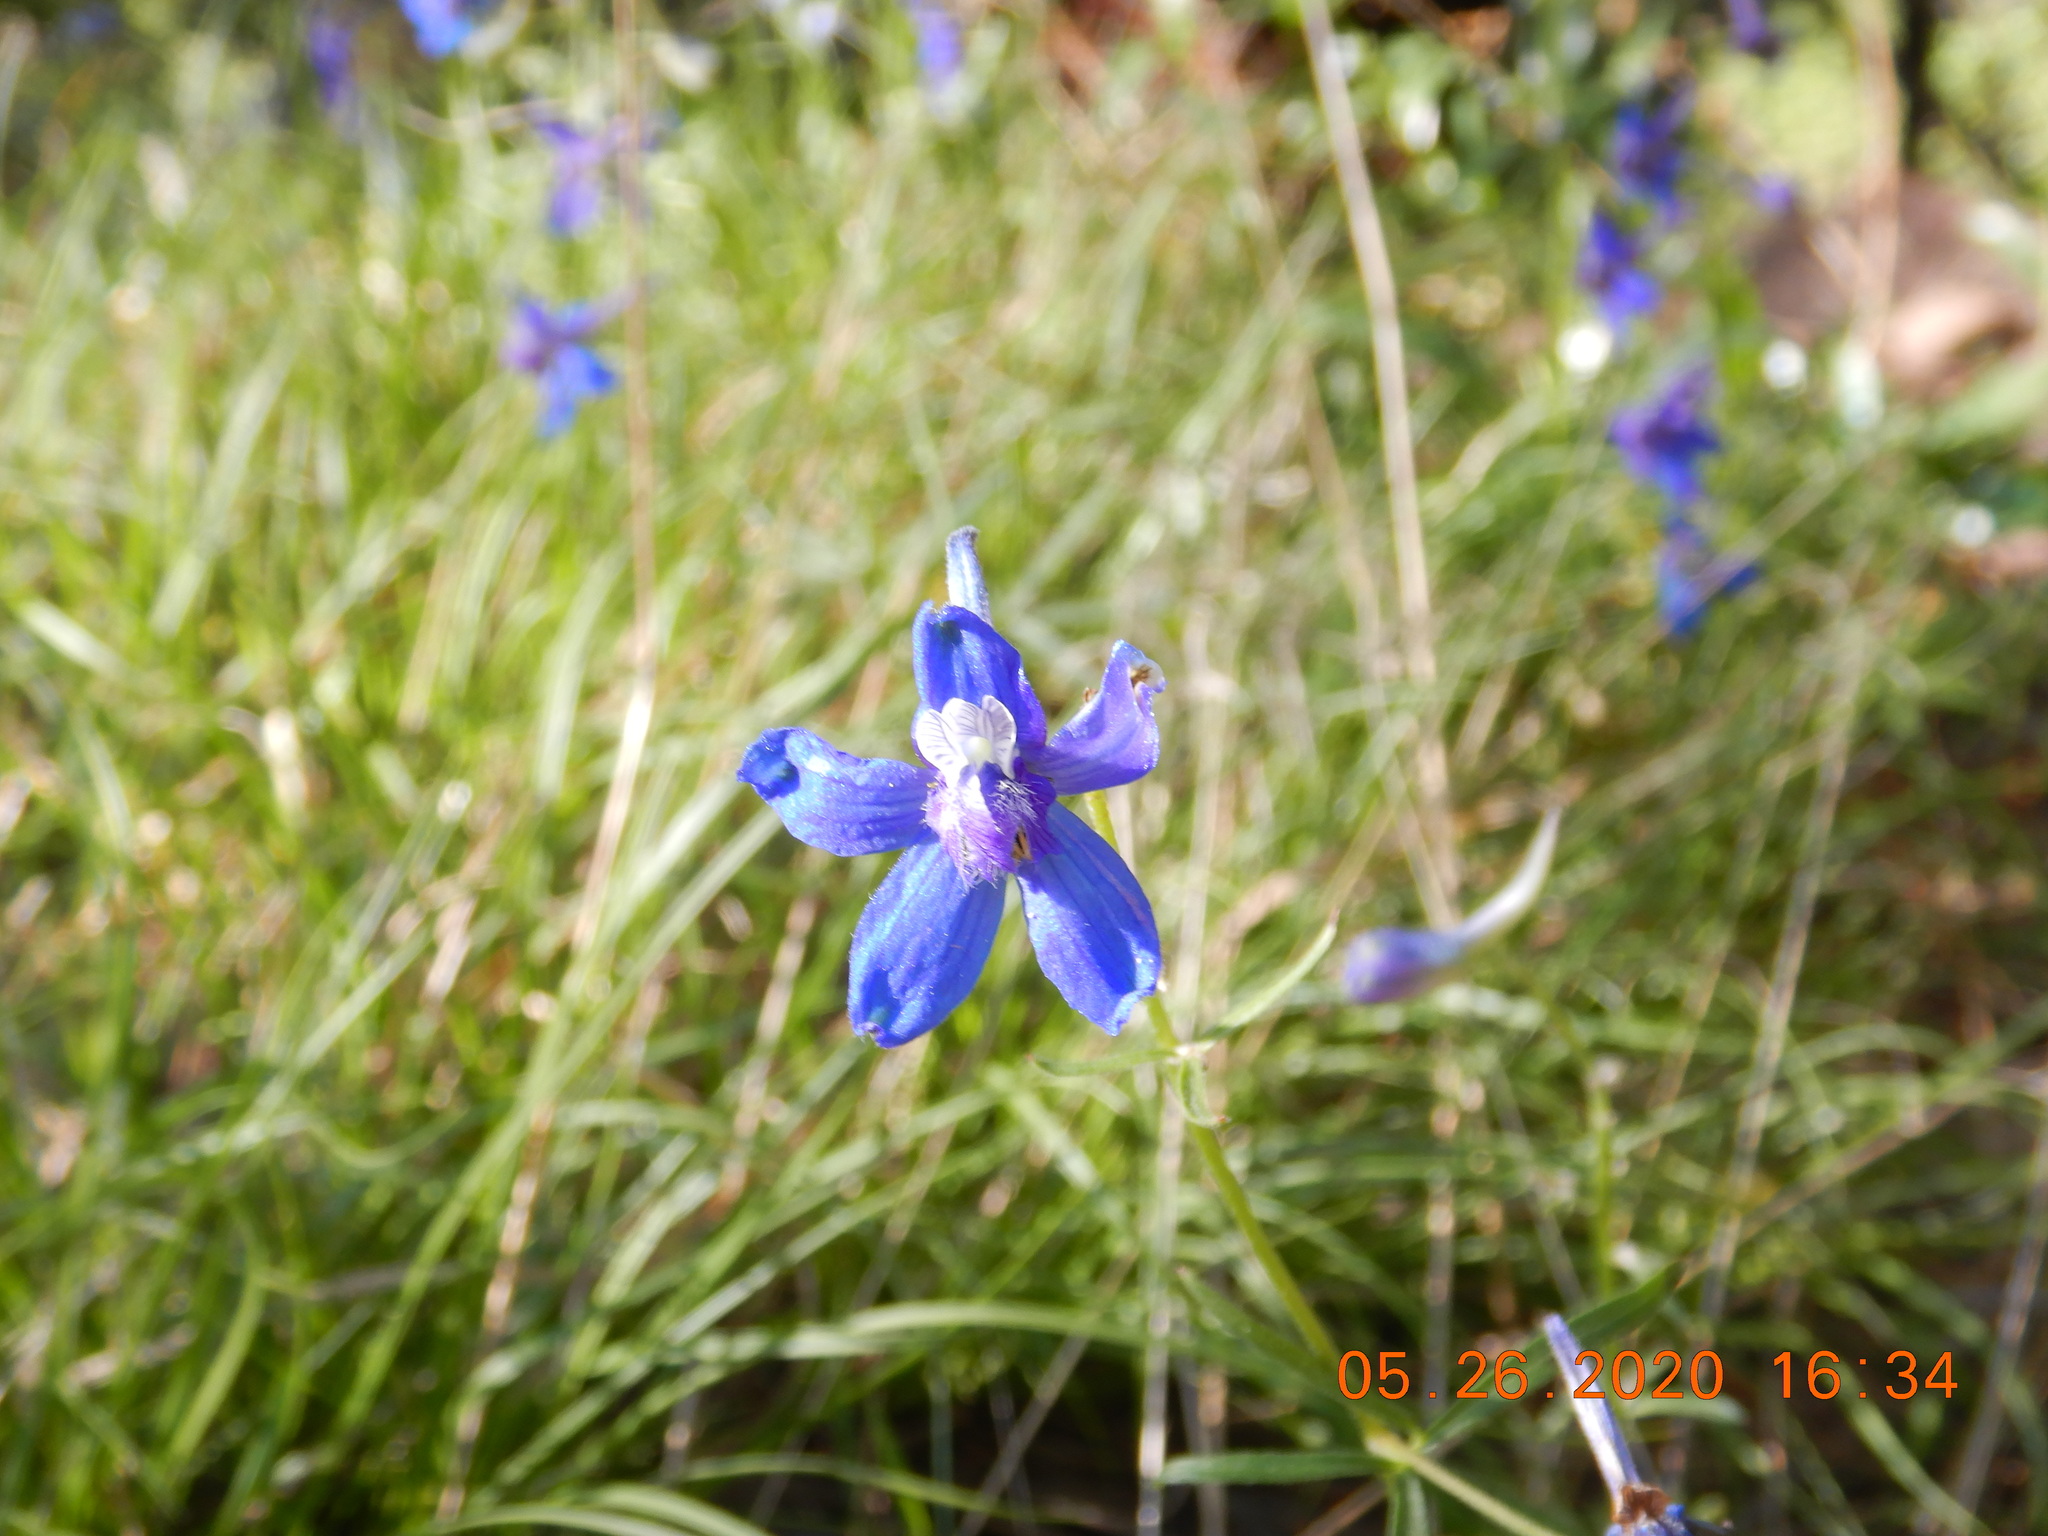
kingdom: Plantae
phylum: Tracheophyta
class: Magnoliopsida
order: Ranunculales
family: Ranunculaceae
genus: Delphinium
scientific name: Delphinium nuttallianum
